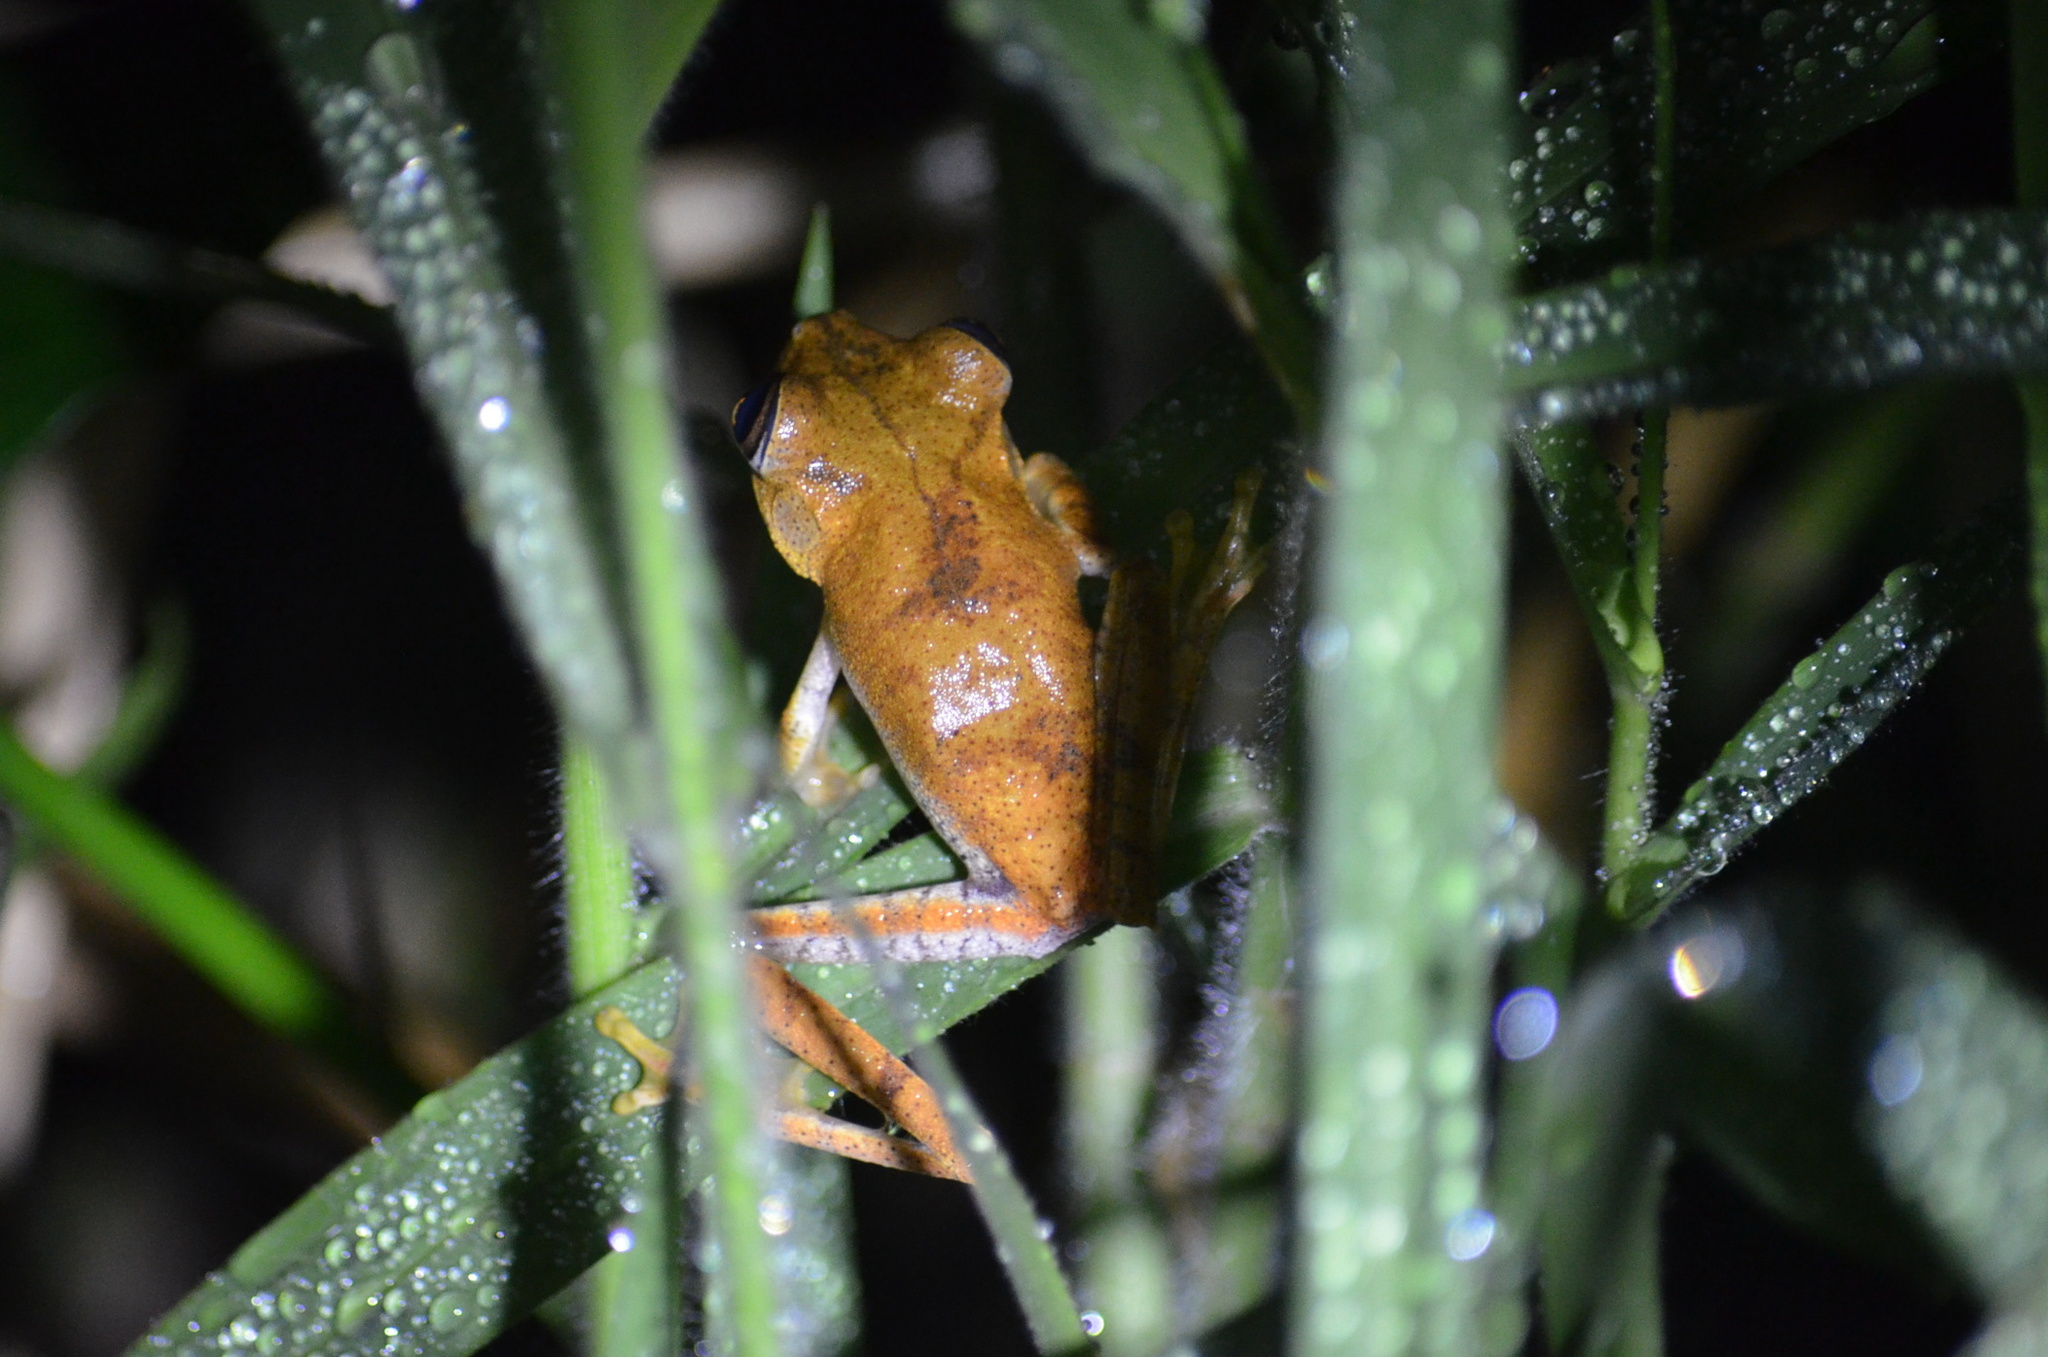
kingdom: Animalia
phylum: Chordata
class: Amphibia
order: Anura
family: Hylidae
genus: Boana
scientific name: Boana semilineata
